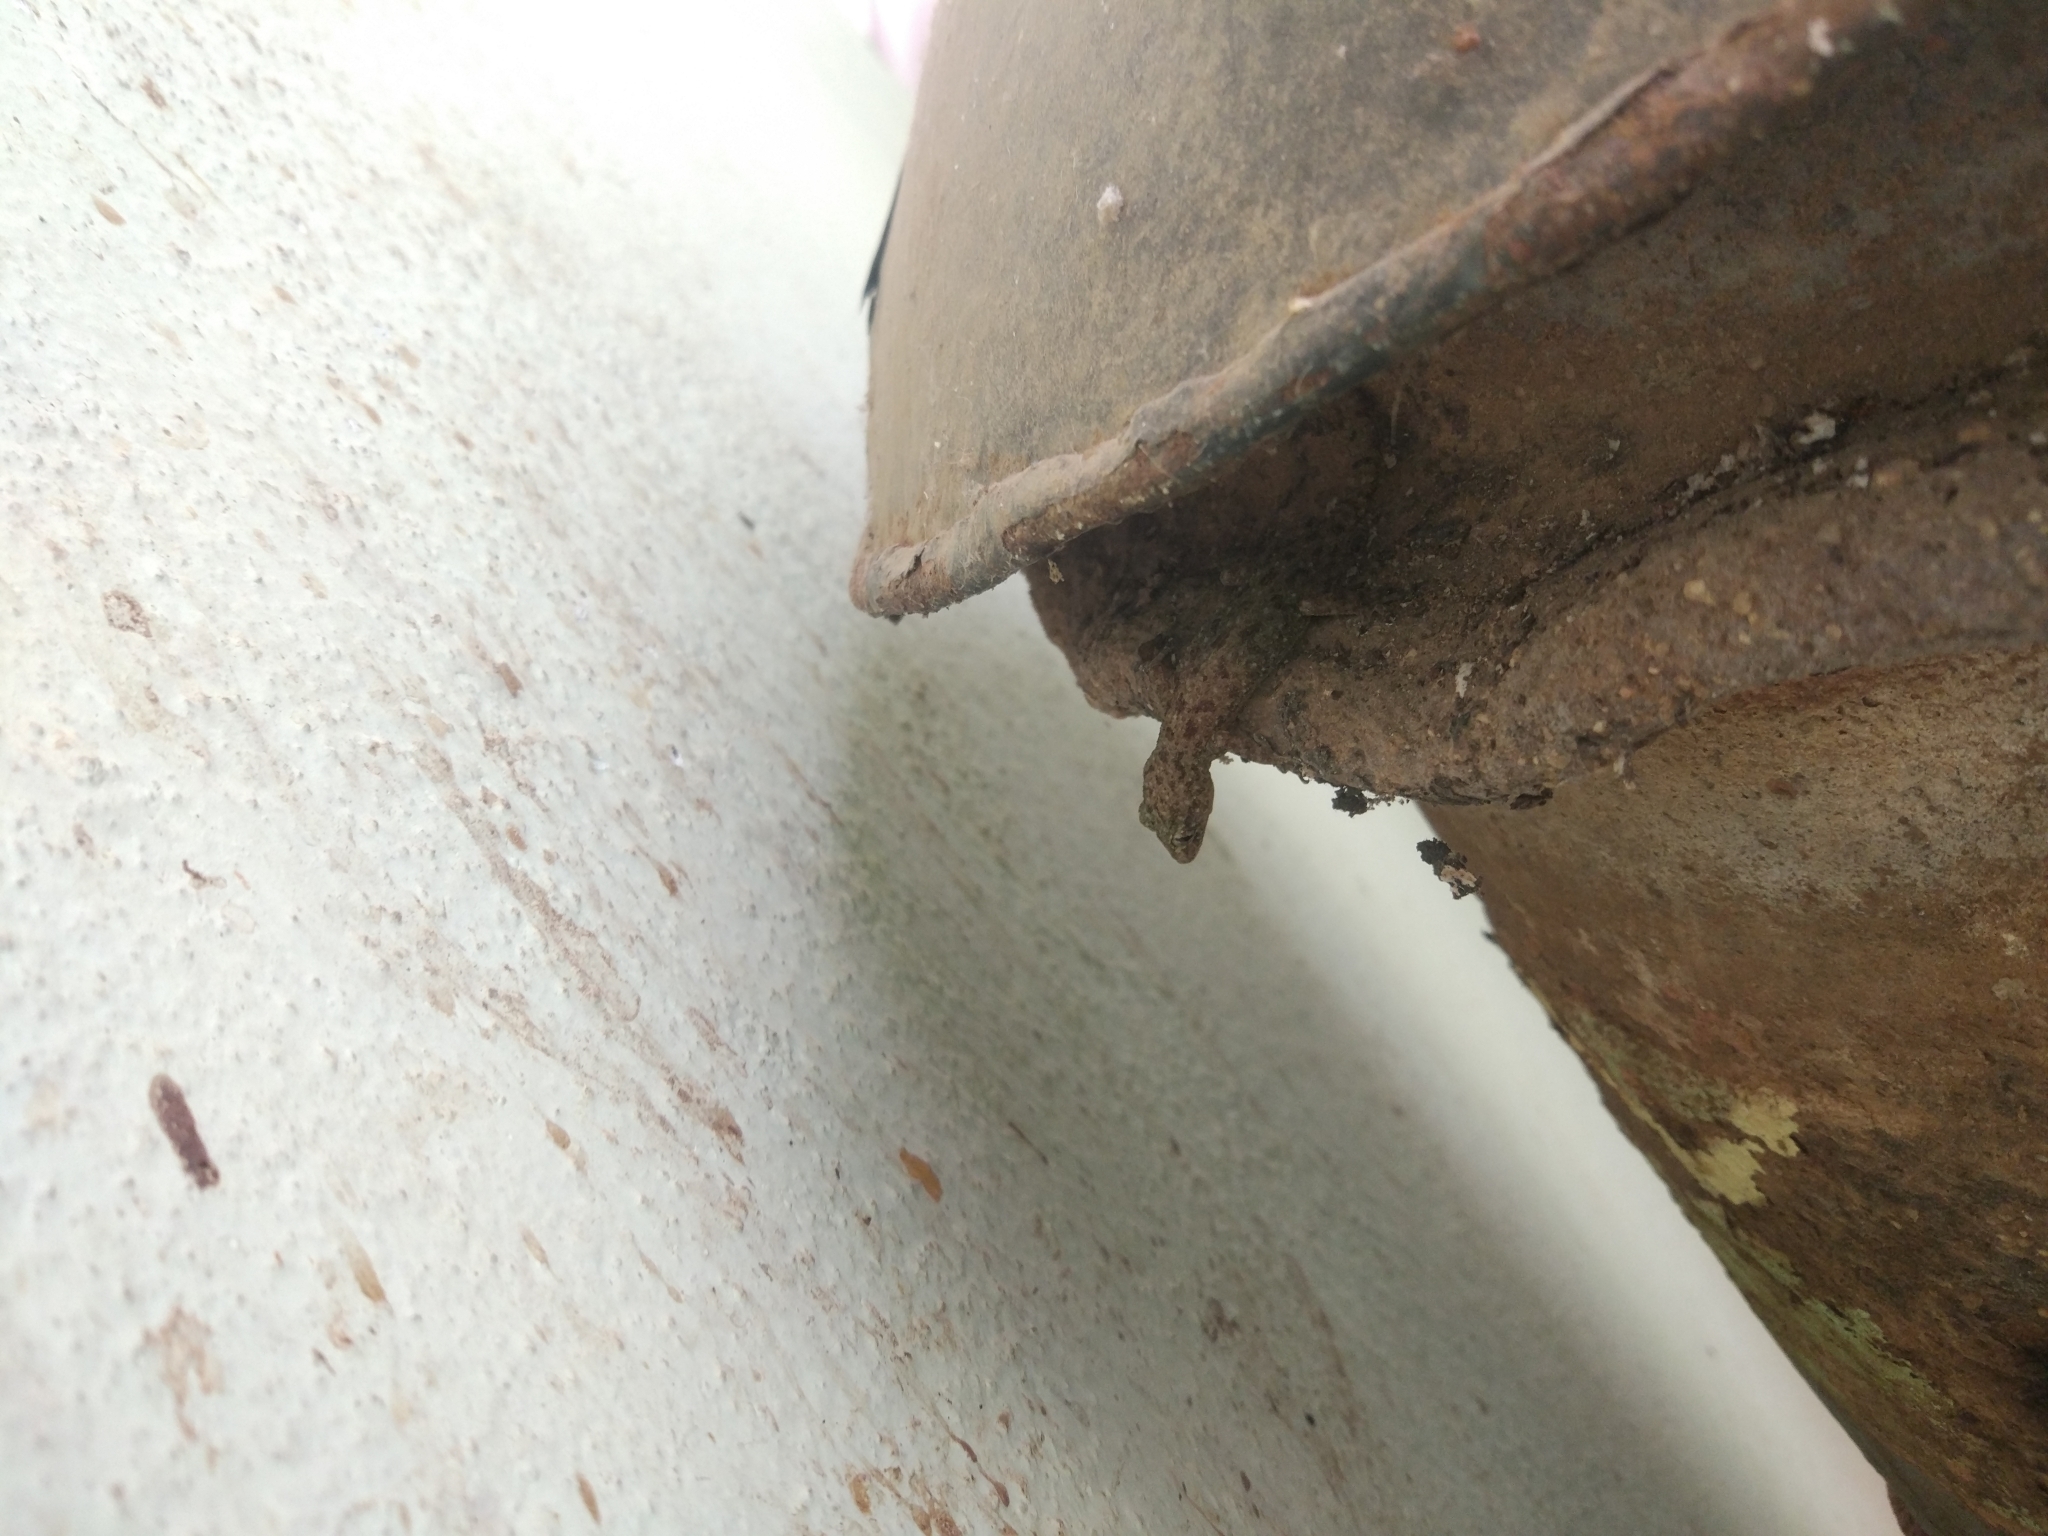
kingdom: Animalia
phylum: Chordata
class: Squamata
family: Gekkonidae
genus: Hemidactylus
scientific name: Hemidactylus parvimaculatus
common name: Spotted house gecko
